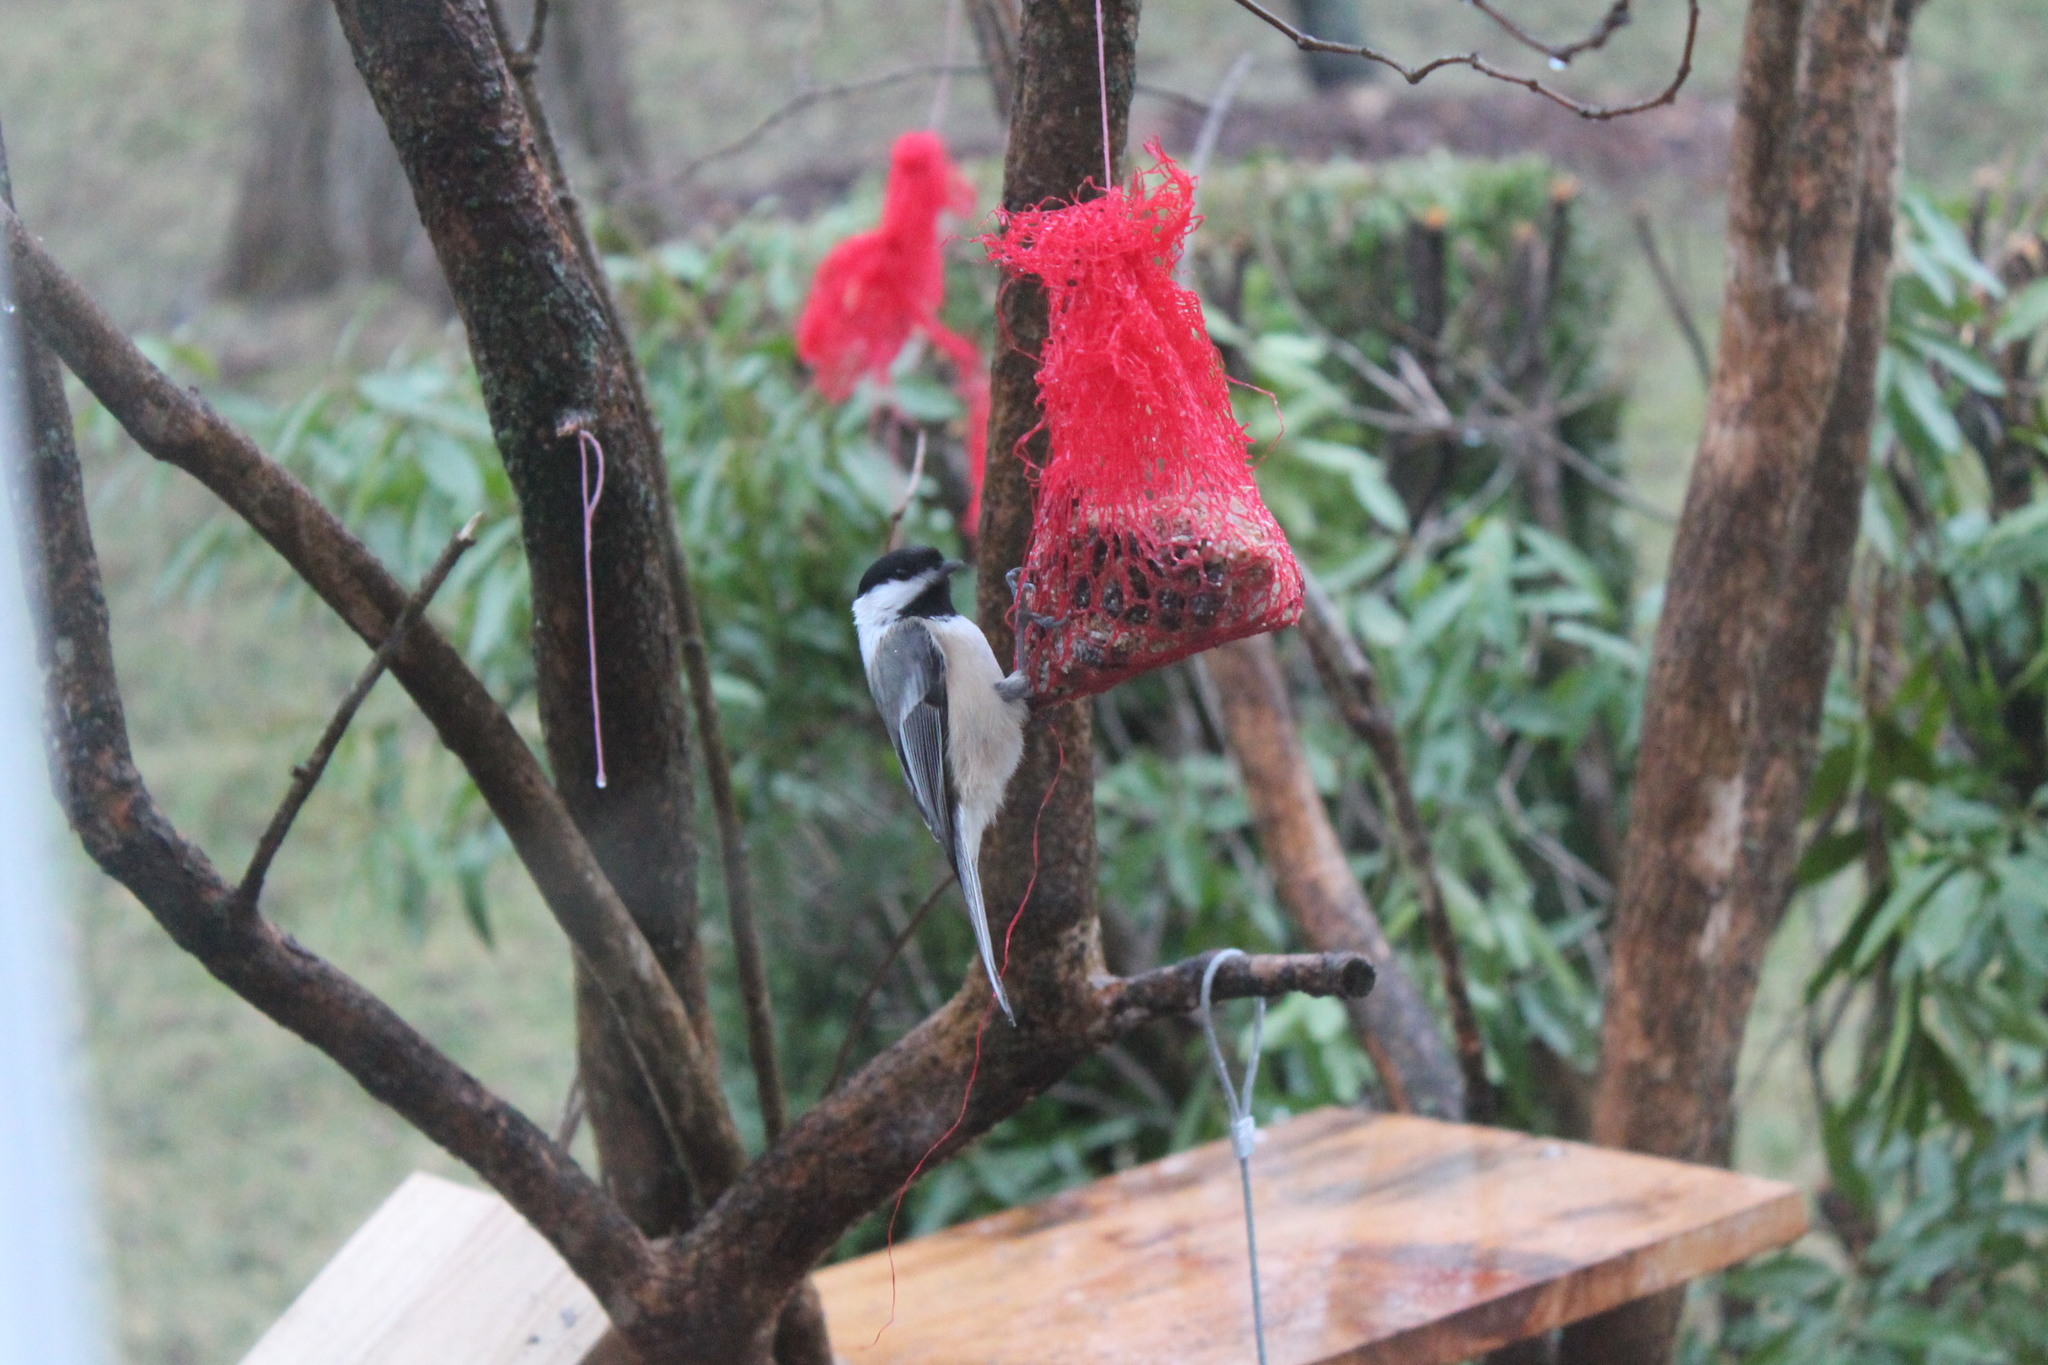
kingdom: Animalia
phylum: Chordata
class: Aves
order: Passeriformes
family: Paridae
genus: Poecile
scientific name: Poecile atricapillus
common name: Black-capped chickadee
